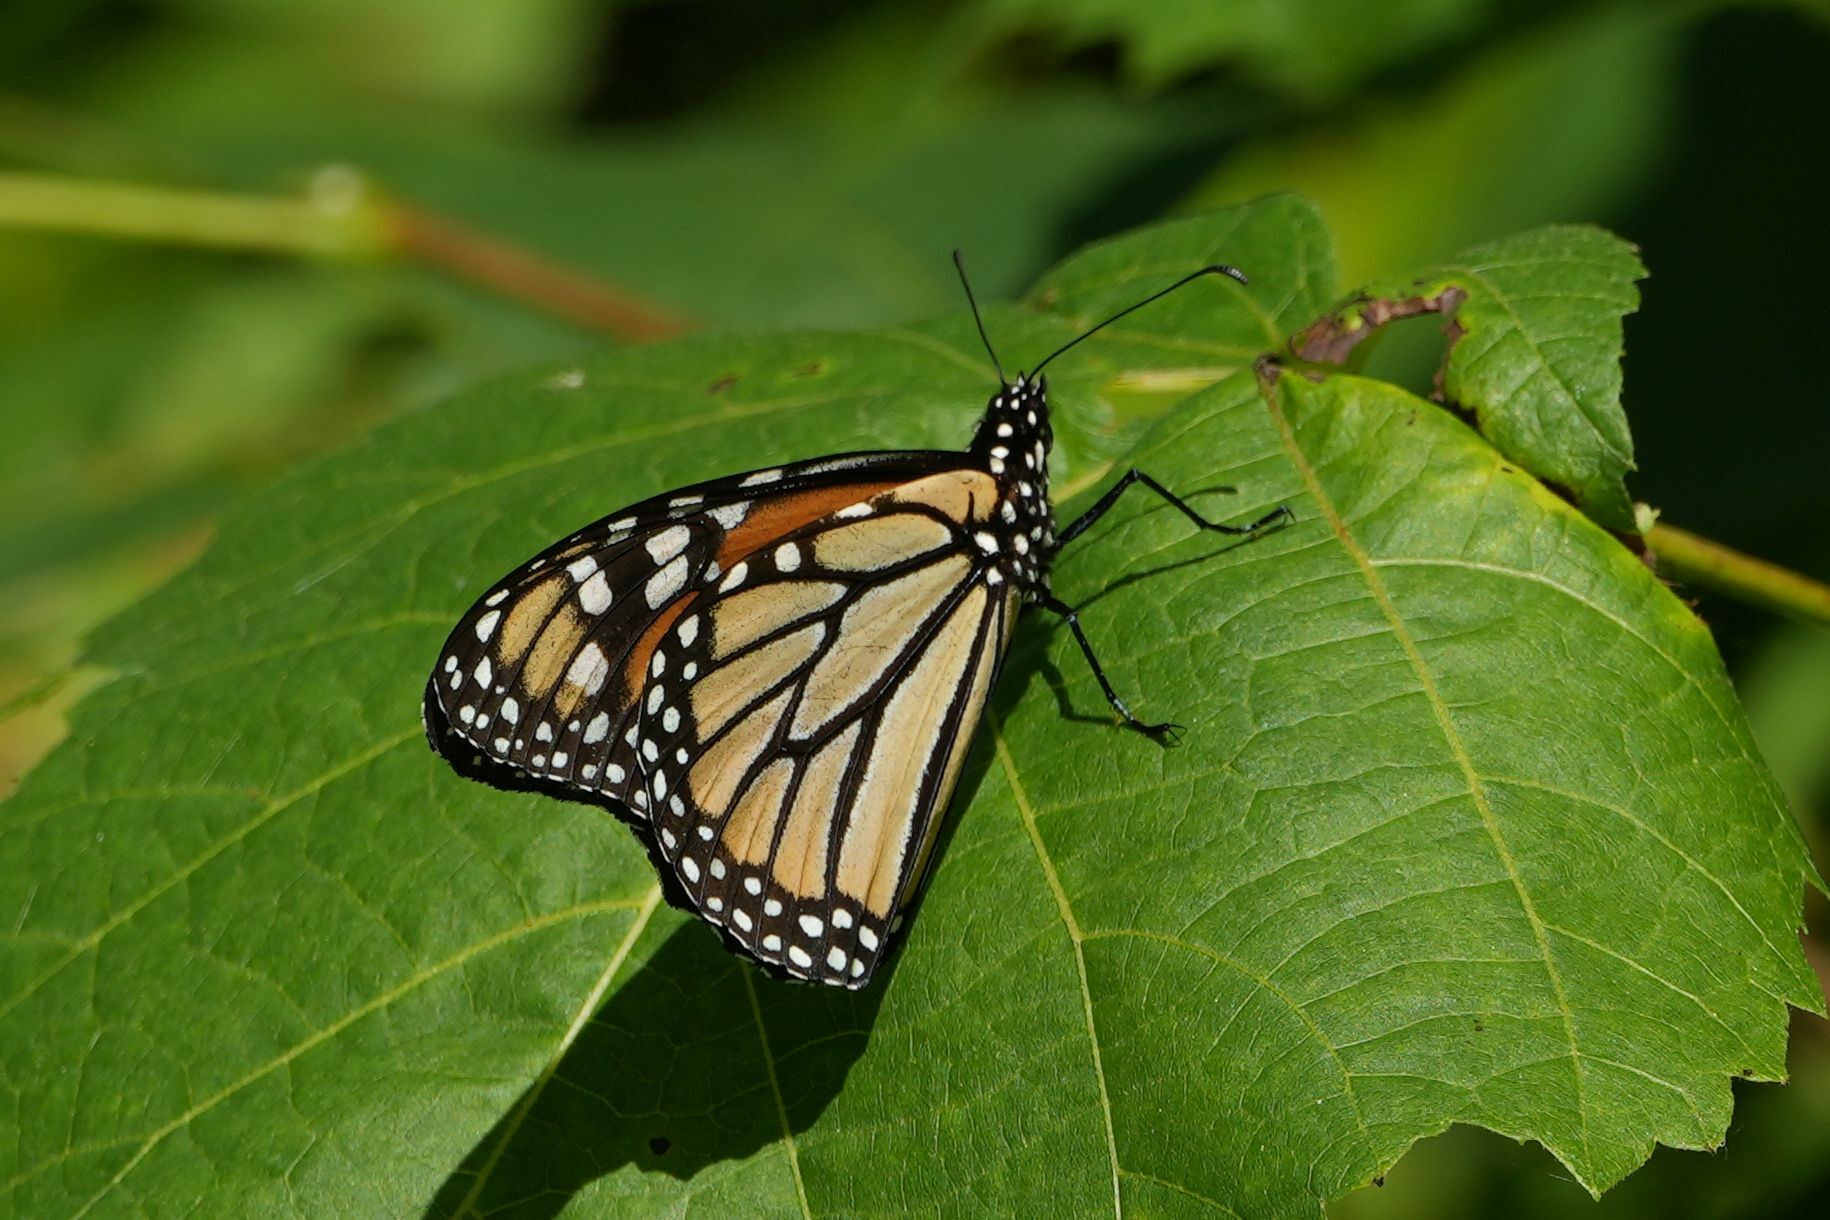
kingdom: Animalia
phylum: Arthropoda
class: Insecta
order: Lepidoptera
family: Nymphalidae
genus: Danaus
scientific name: Danaus plexippus
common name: Monarch
